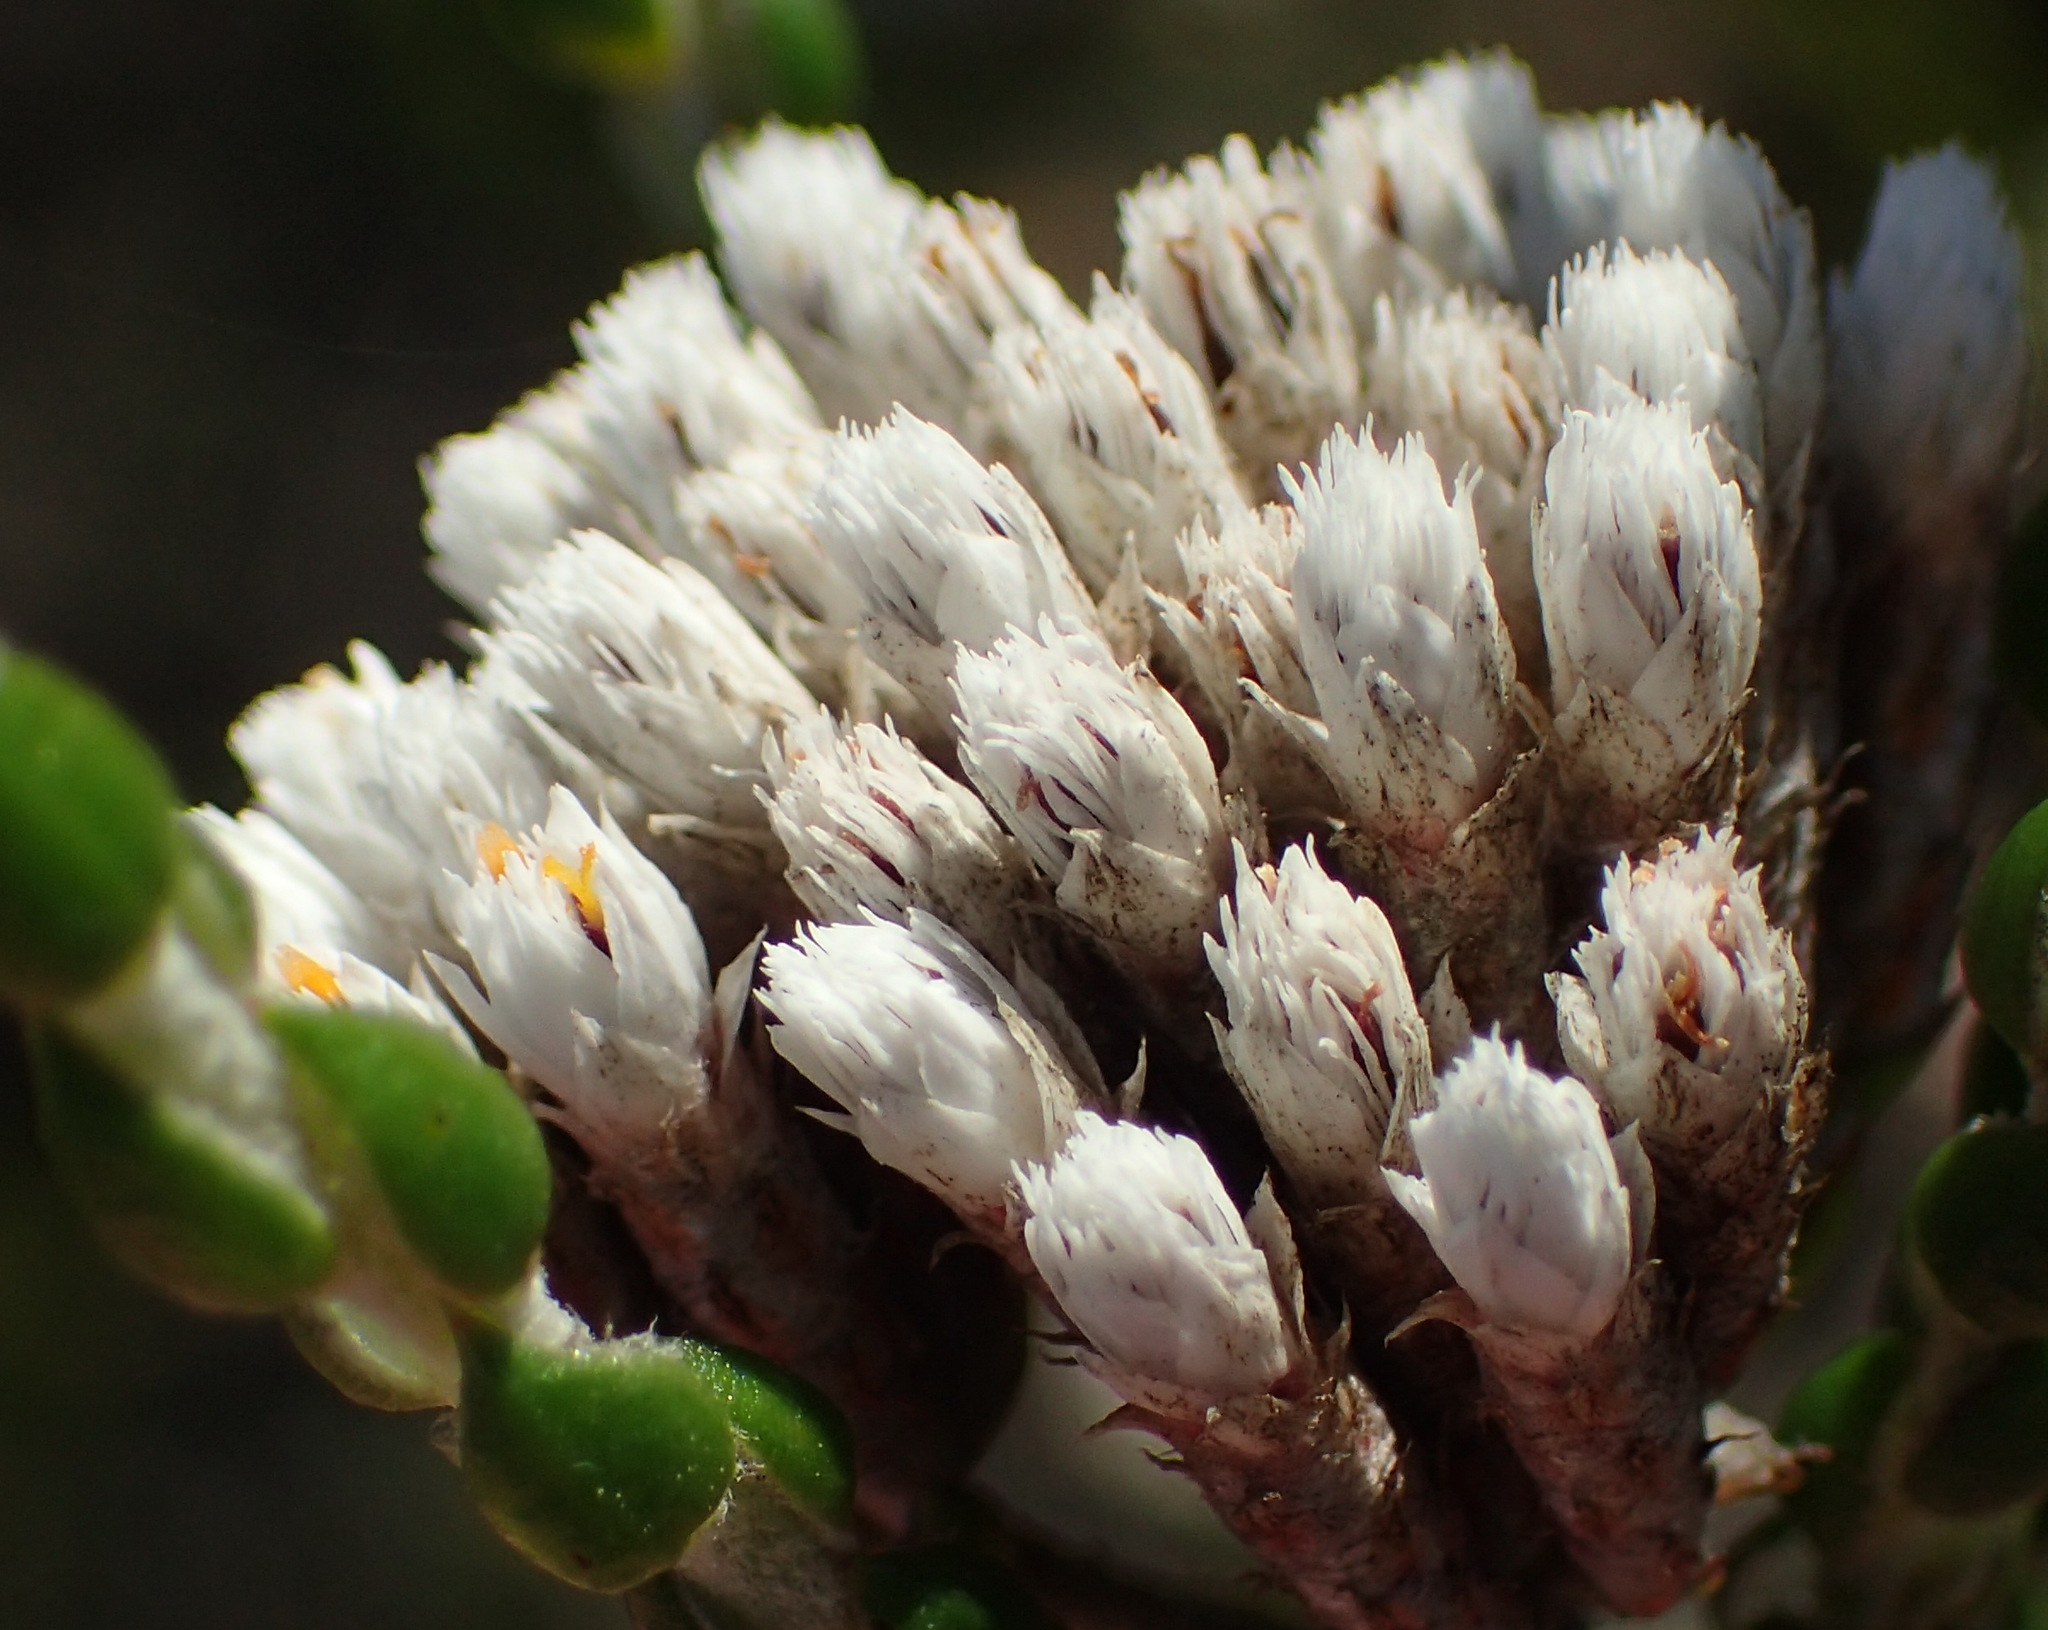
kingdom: Plantae
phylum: Tracheophyta
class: Magnoliopsida
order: Asterales
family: Asteraceae
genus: Metalasia
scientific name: Metalasia pulcherrima
